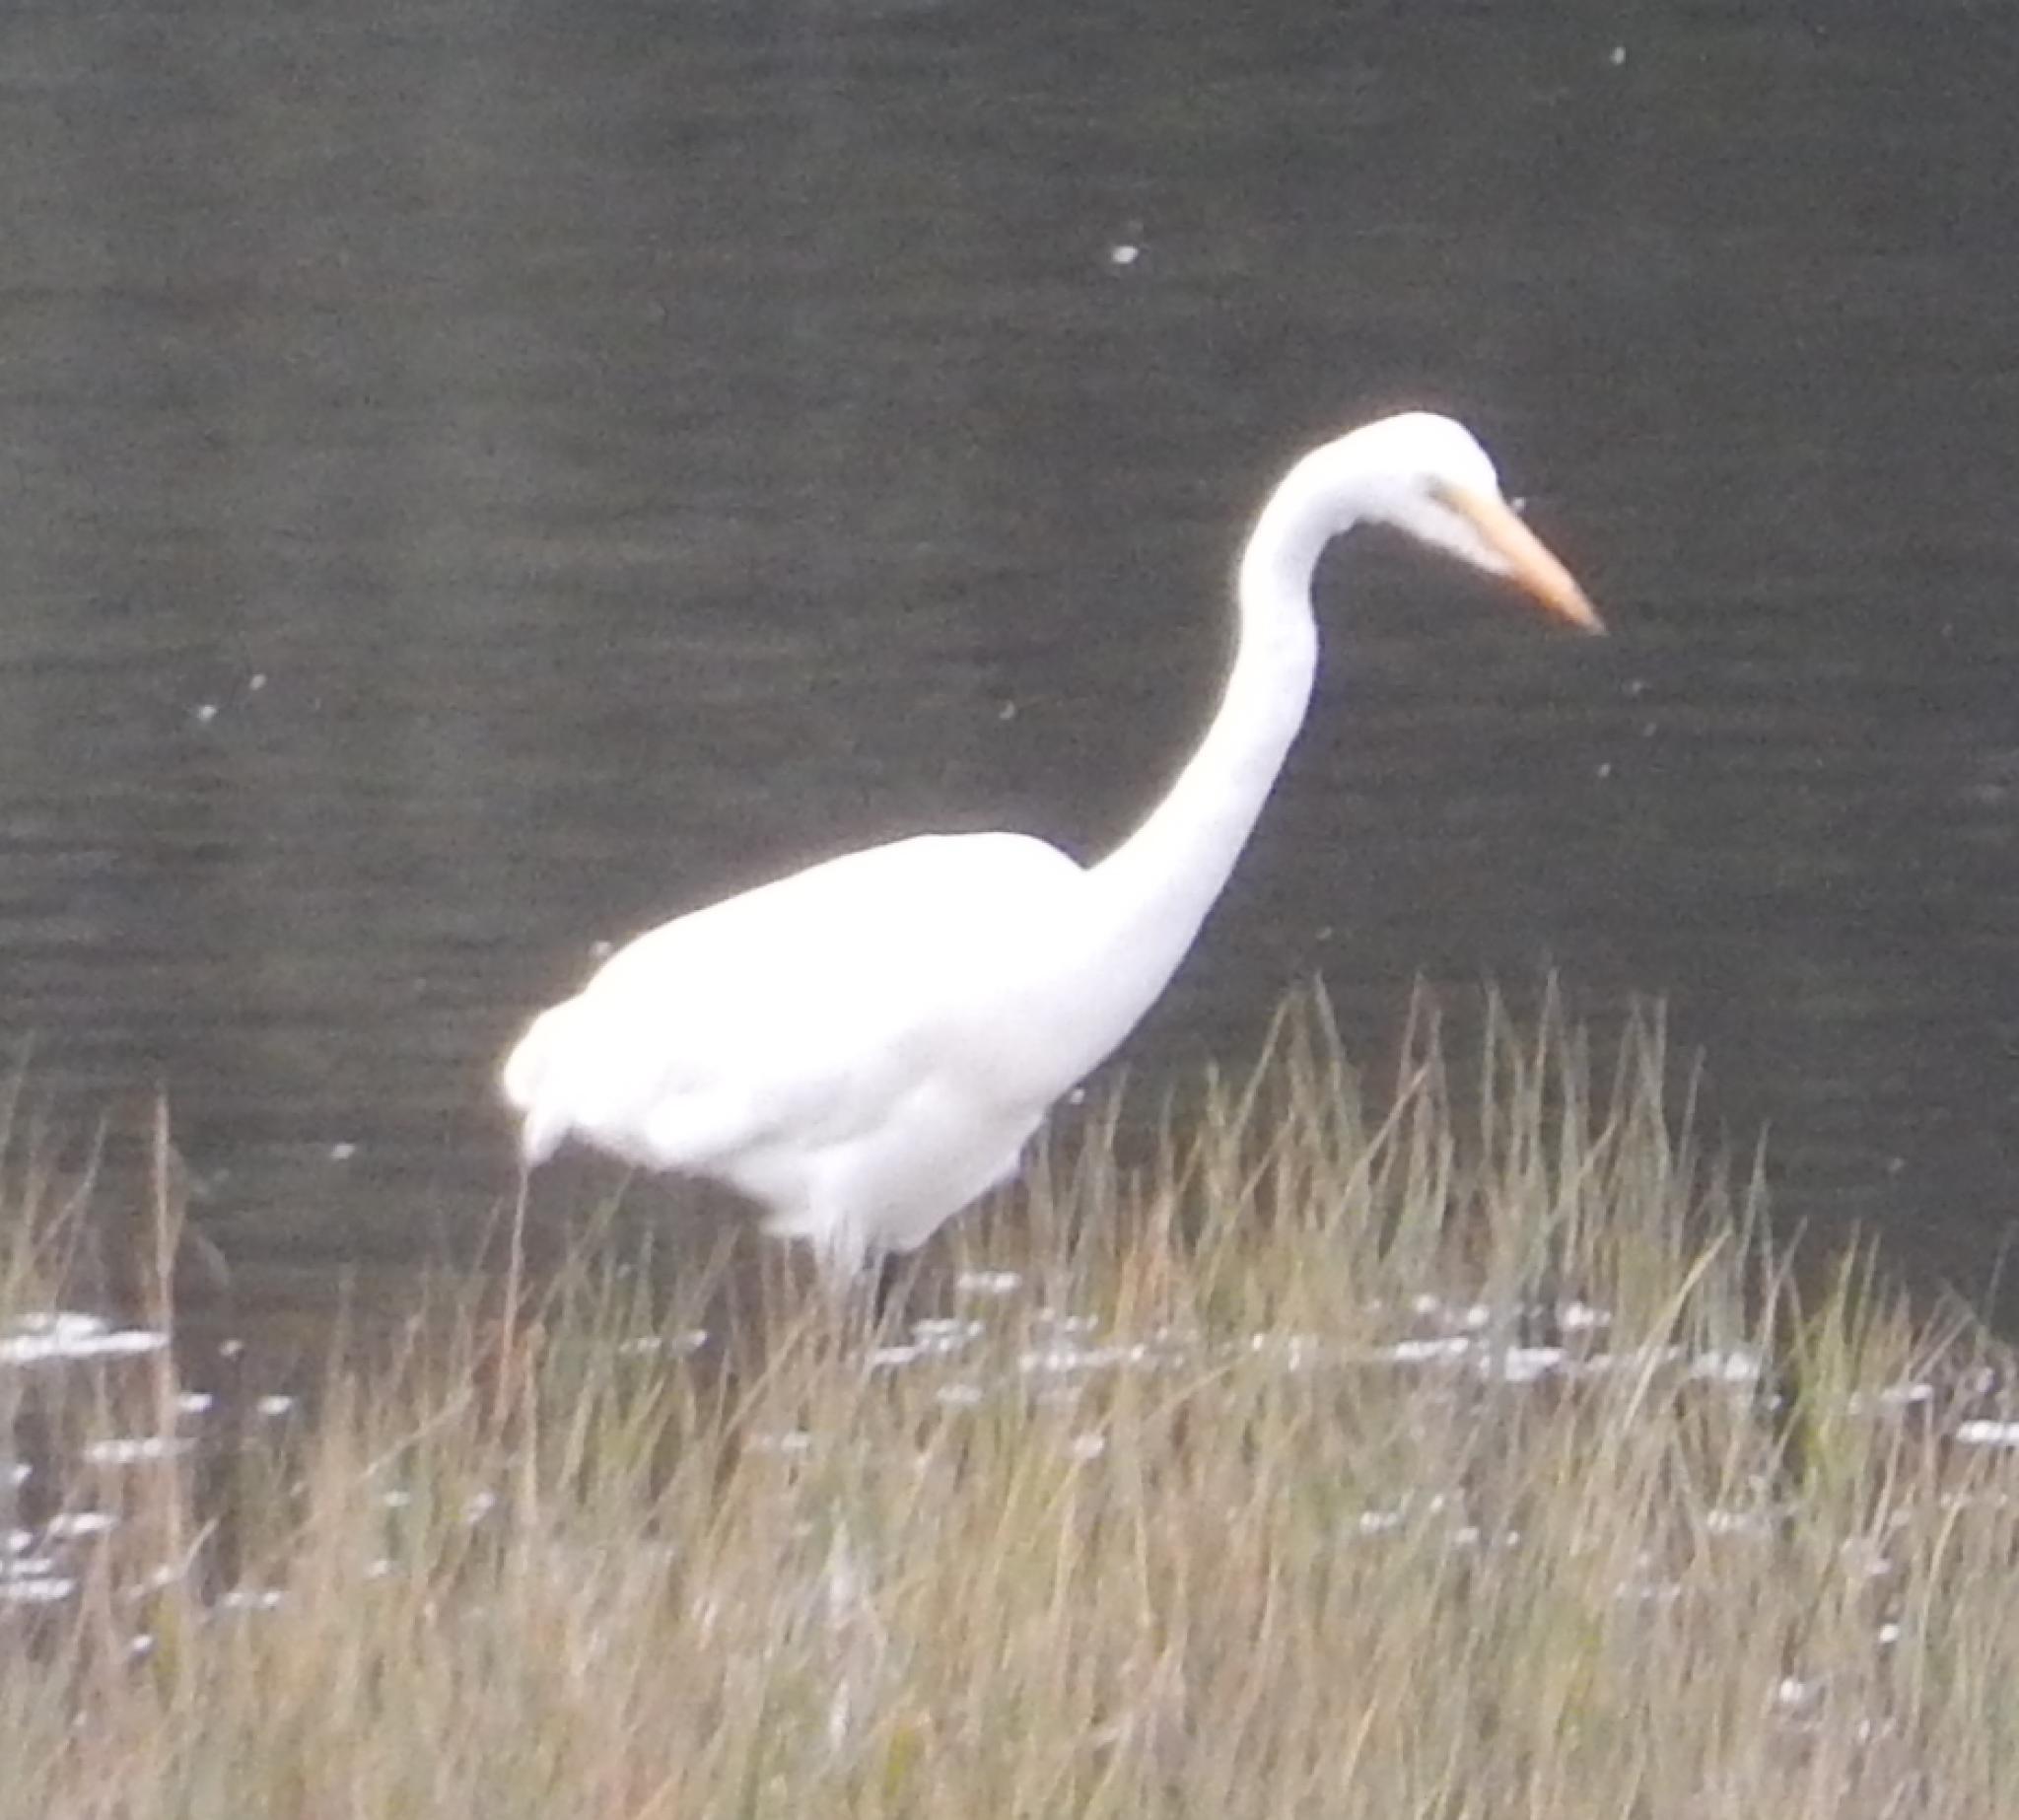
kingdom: Animalia
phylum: Chordata
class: Aves
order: Pelecaniformes
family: Ardeidae
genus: Ardea
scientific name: Ardea alba
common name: Great egret
